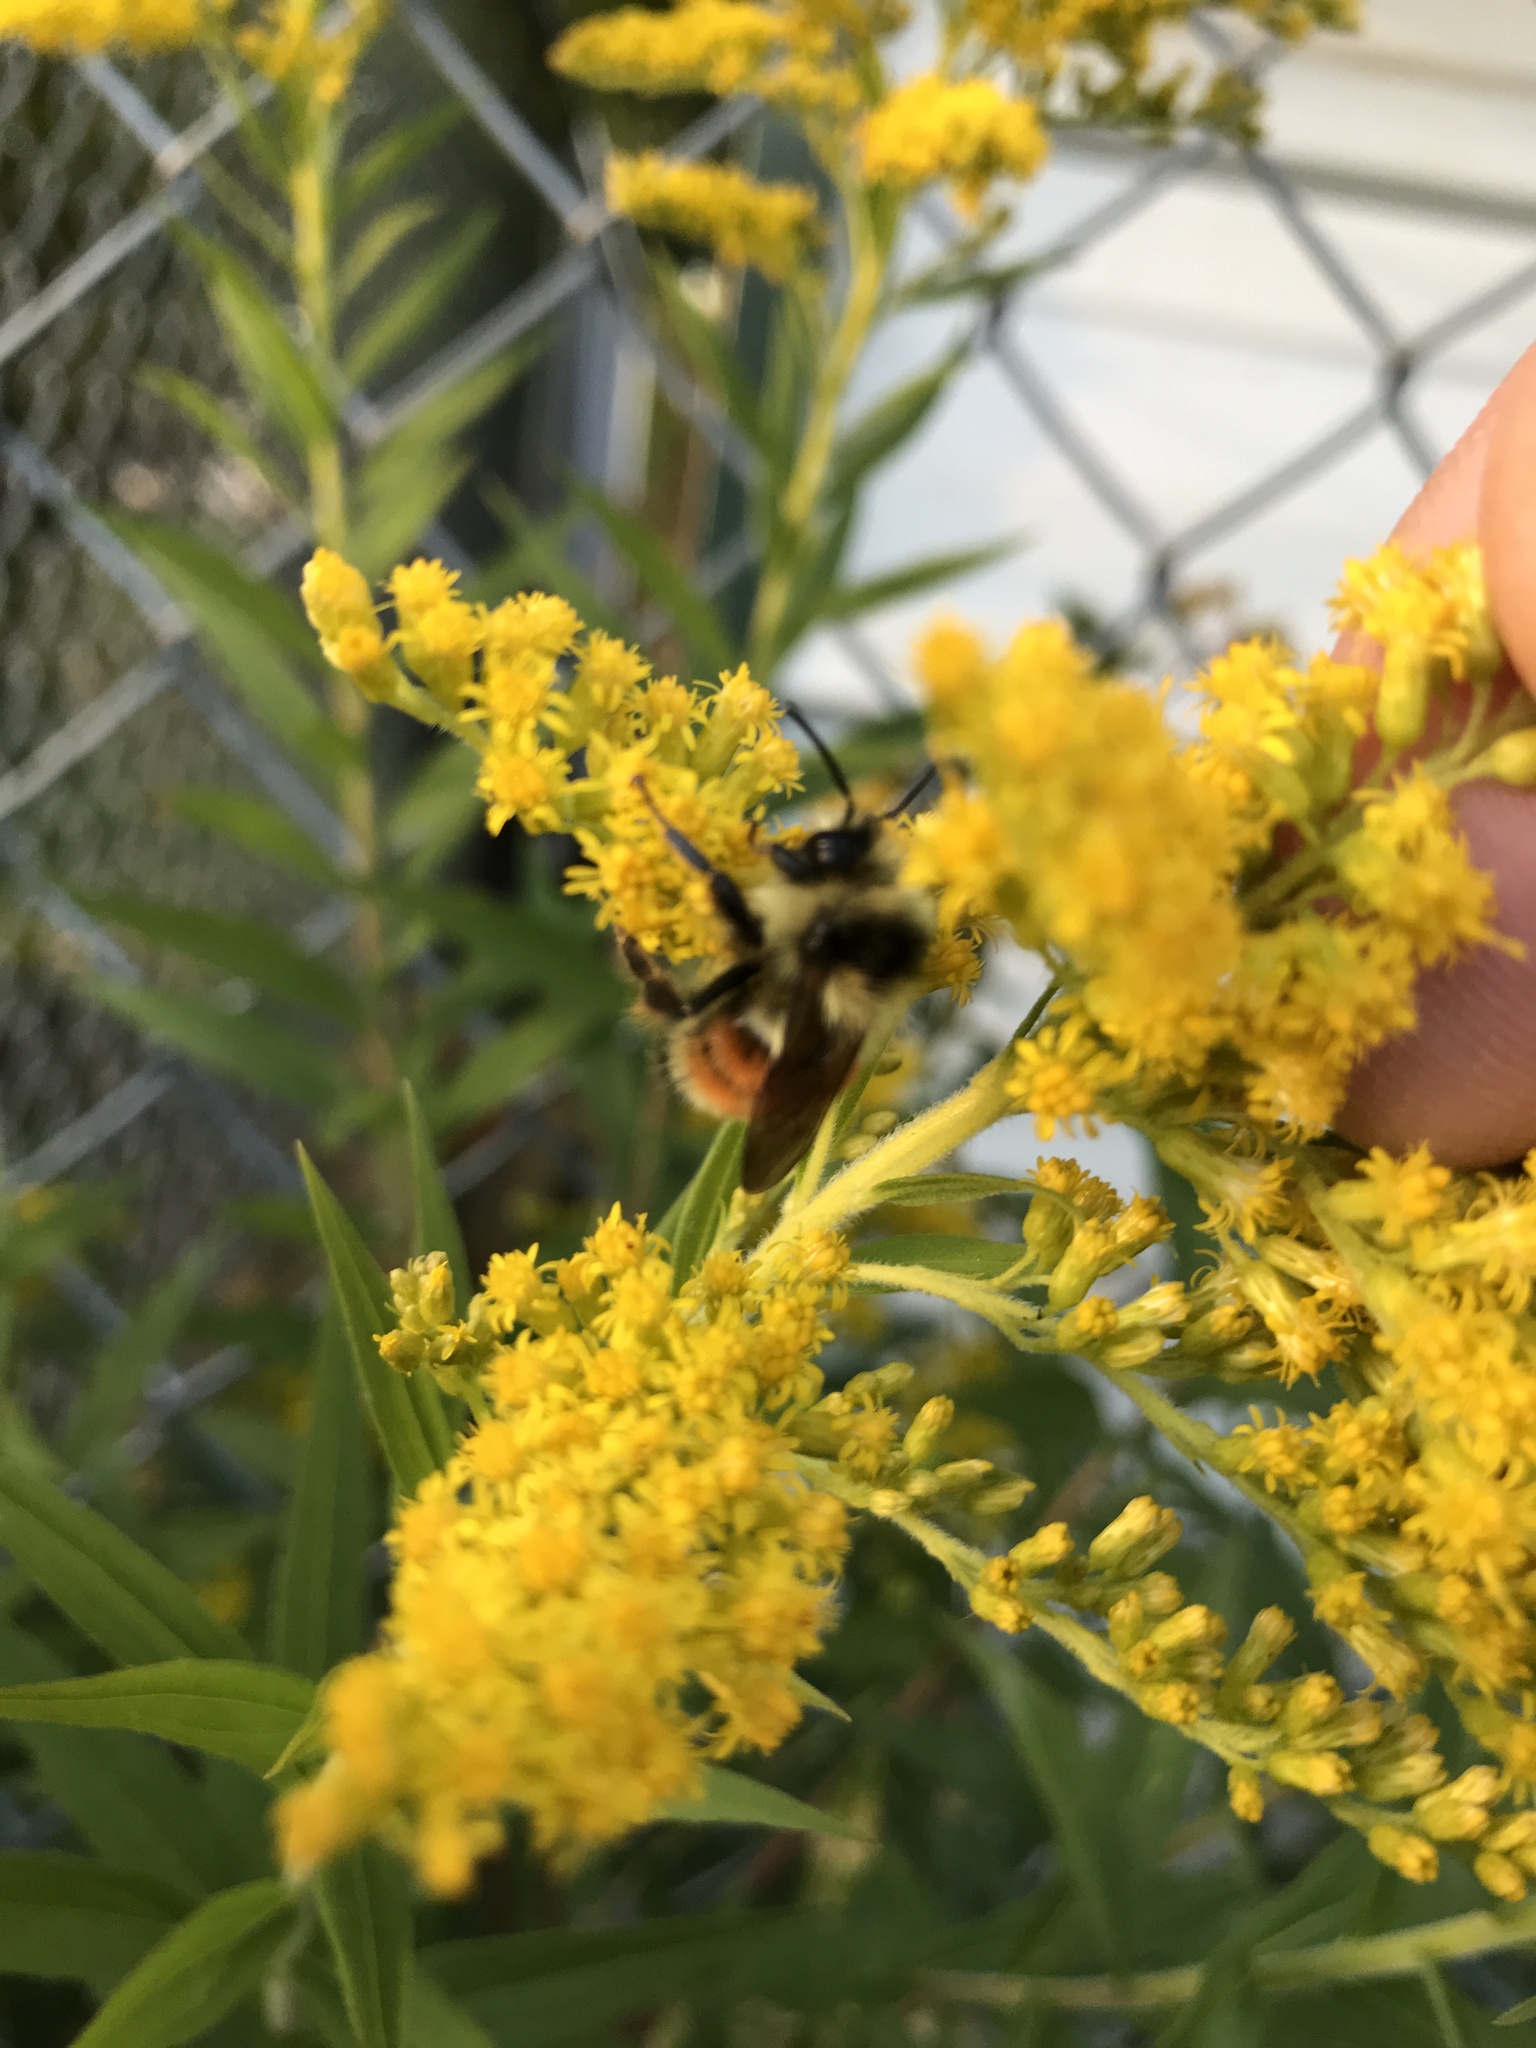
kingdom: Animalia
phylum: Arthropoda
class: Insecta
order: Hymenoptera
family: Apidae
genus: Bombus
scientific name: Bombus ternarius
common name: Tri-colored bumble bee
